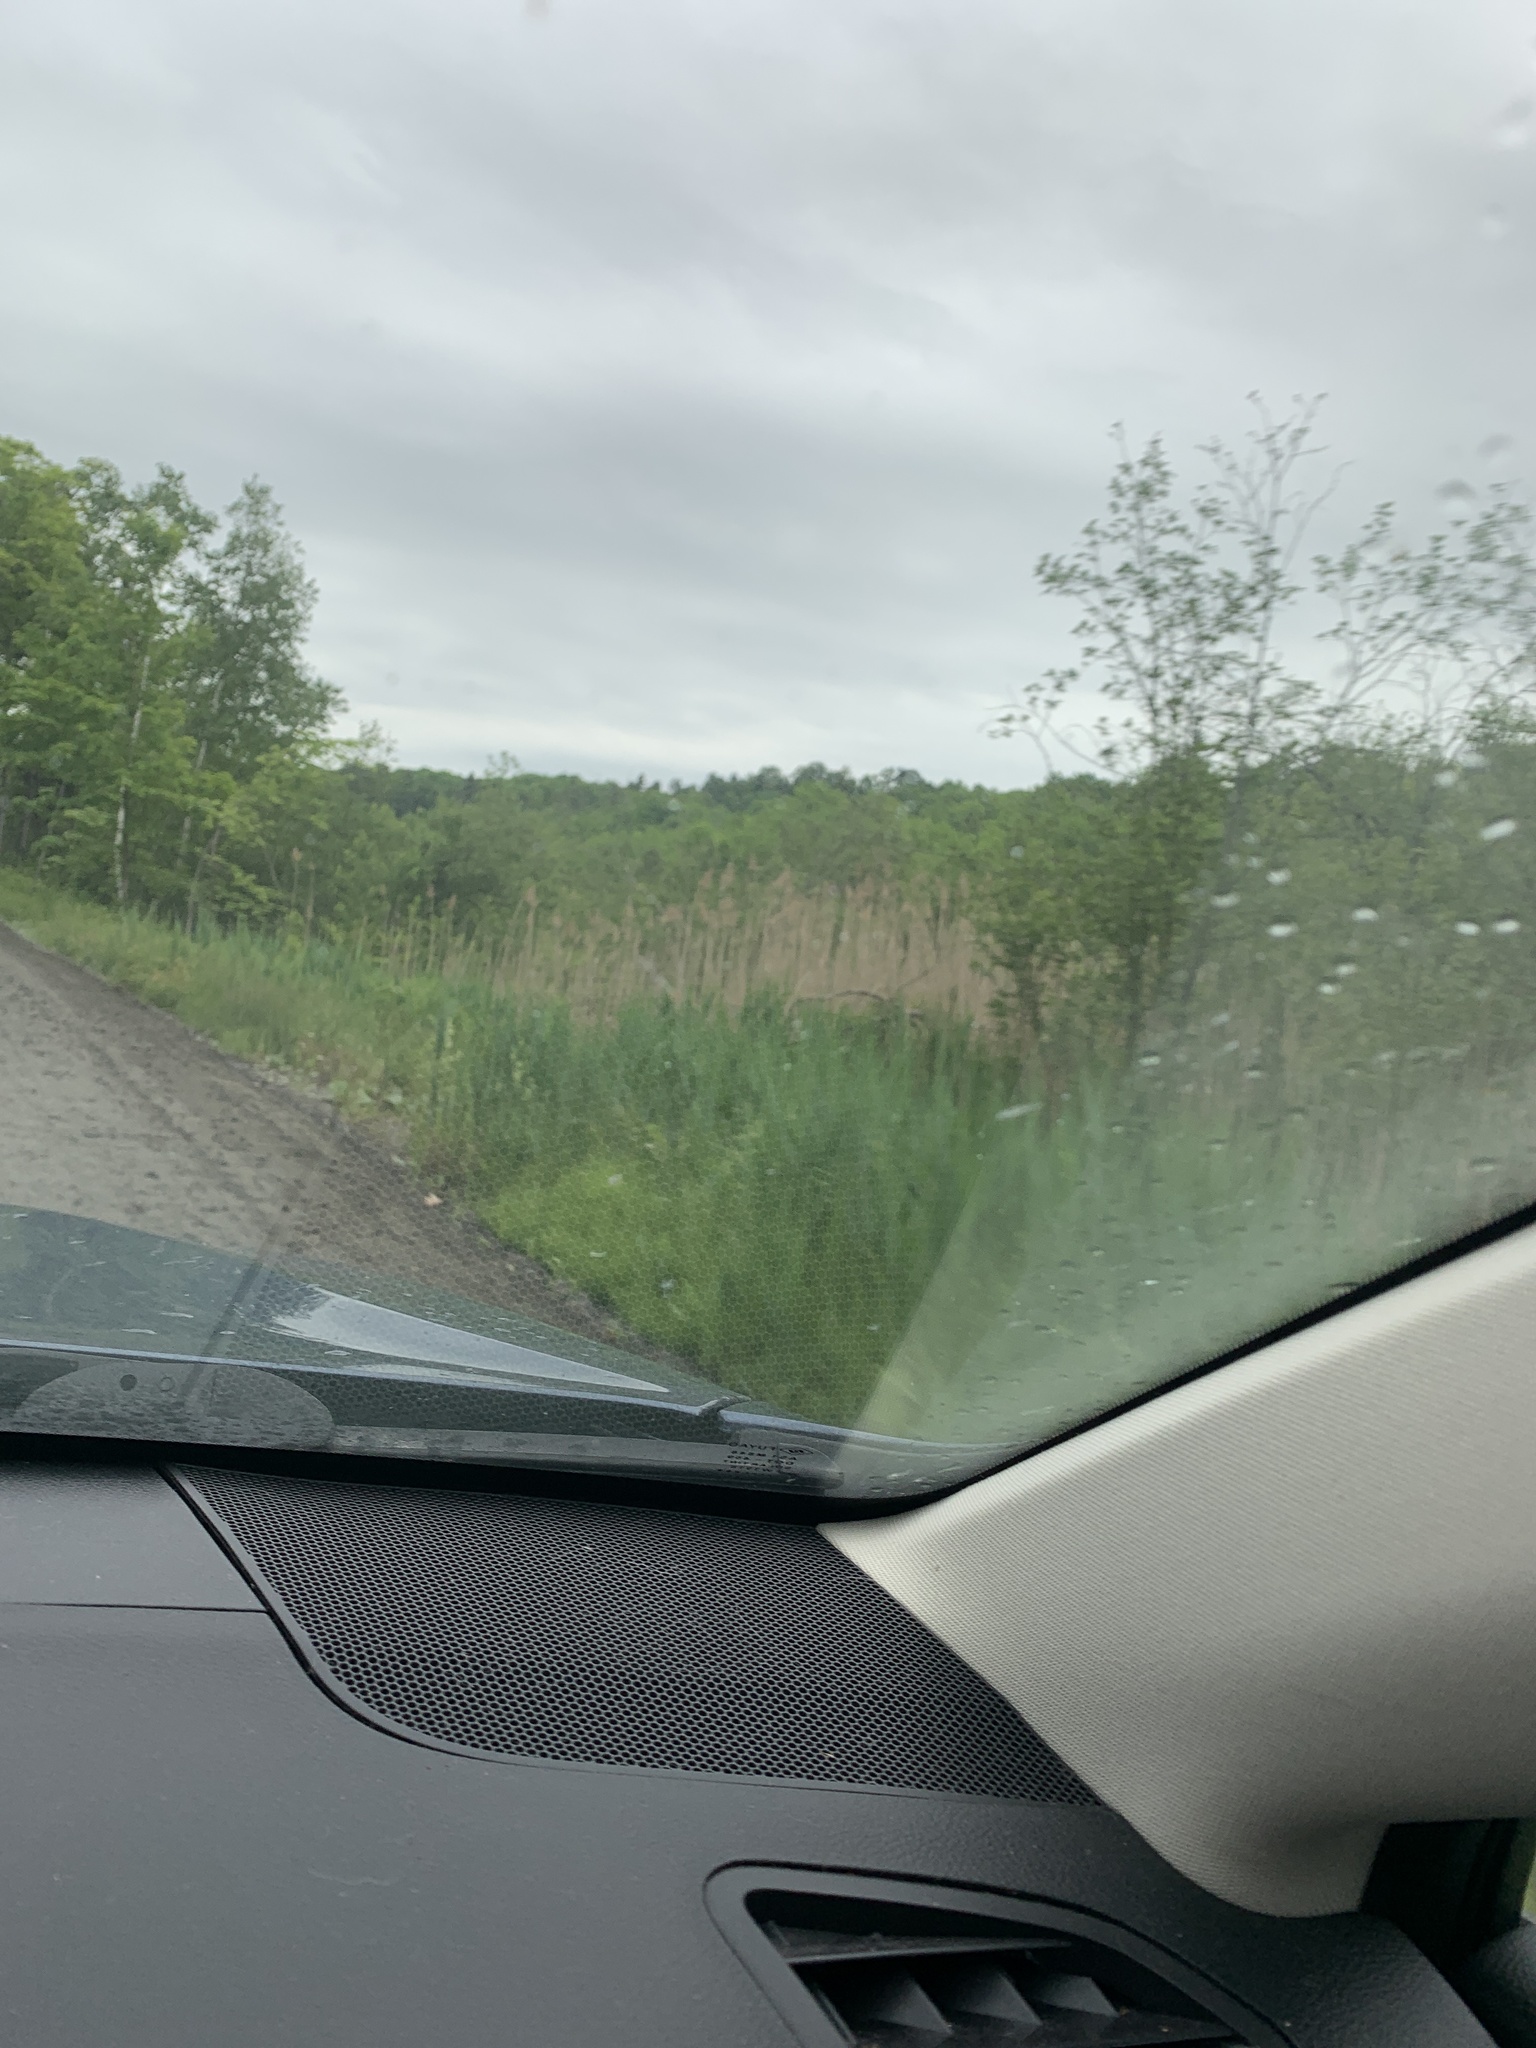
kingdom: Plantae
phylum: Tracheophyta
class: Liliopsida
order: Poales
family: Poaceae
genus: Phragmites
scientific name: Phragmites australis
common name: Common reed
